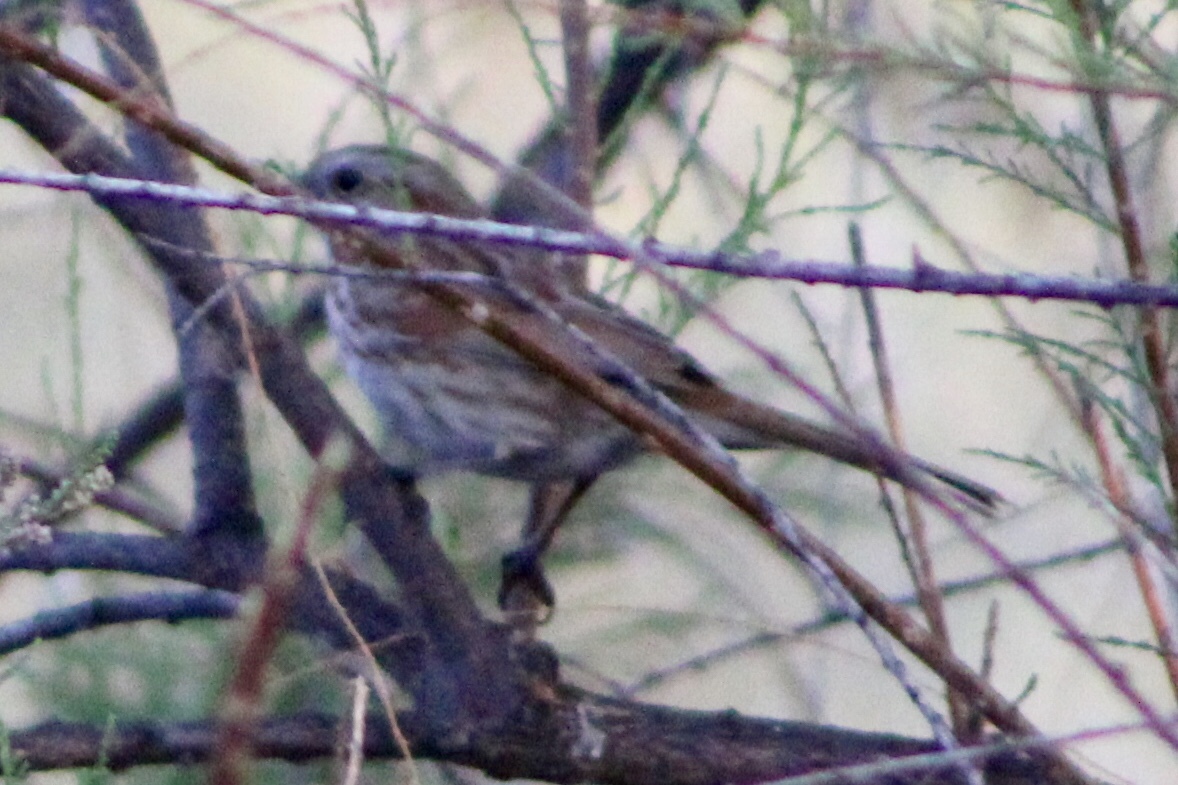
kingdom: Animalia
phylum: Chordata
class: Aves
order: Passeriformes
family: Passerellidae
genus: Melospiza
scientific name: Melospiza melodia
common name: Song sparrow
